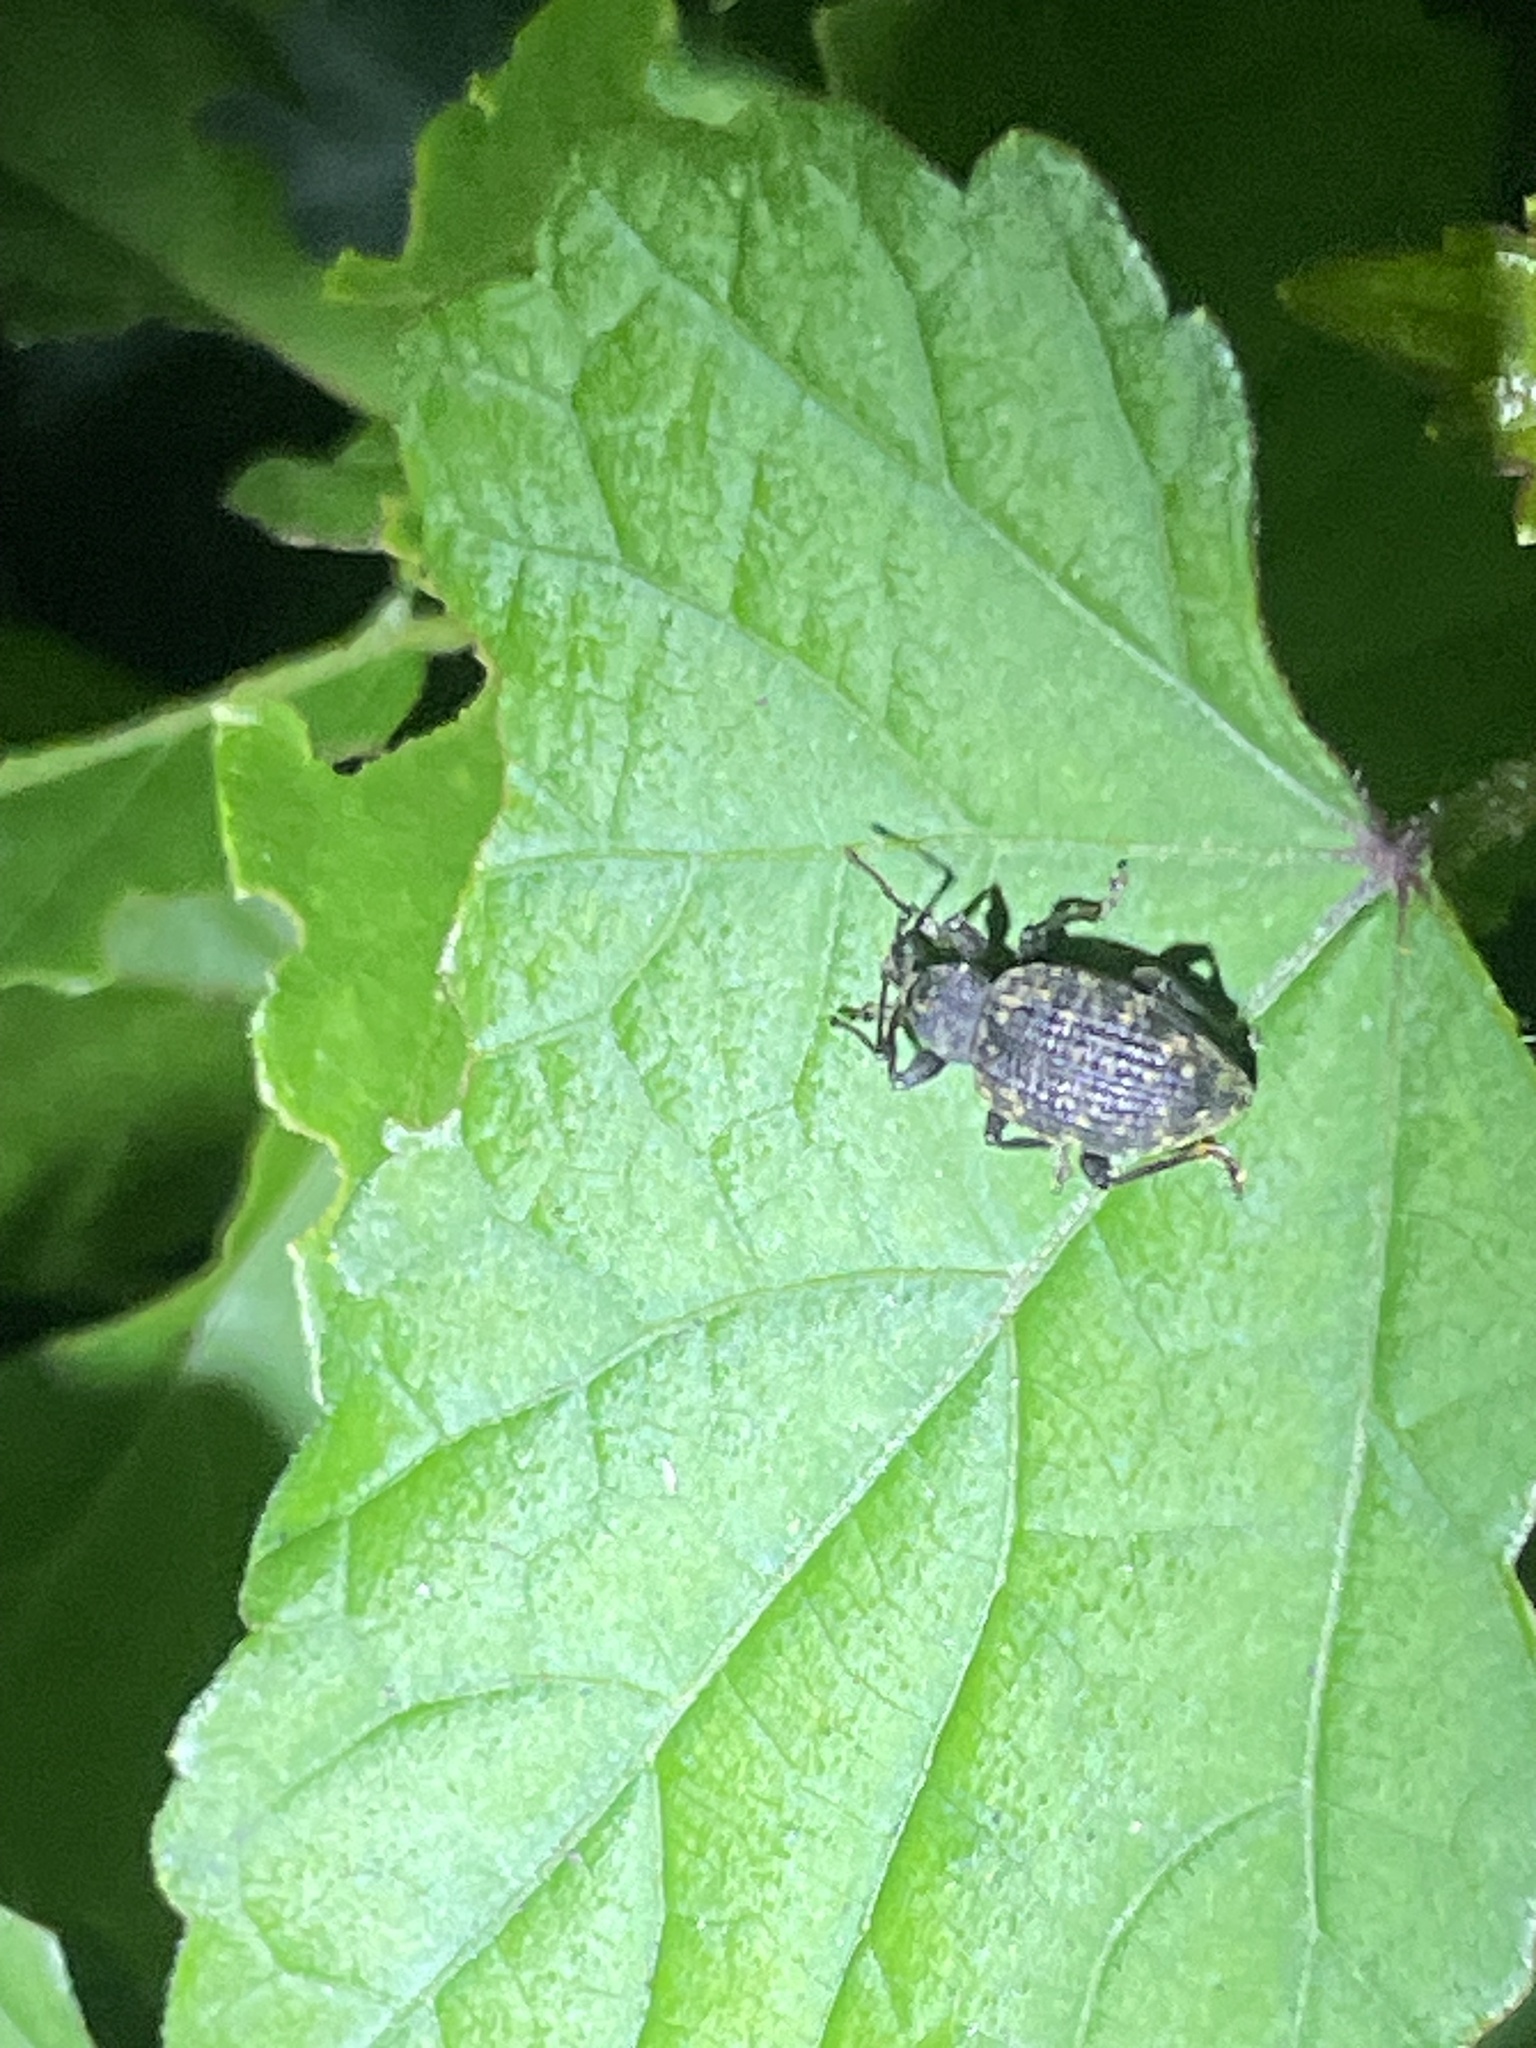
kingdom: Animalia
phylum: Arthropoda
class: Insecta
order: Coleoptera
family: Curculionidae
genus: Otiorhynchus
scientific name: Otiorhynchus sulcatus
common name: Black vine weevil
